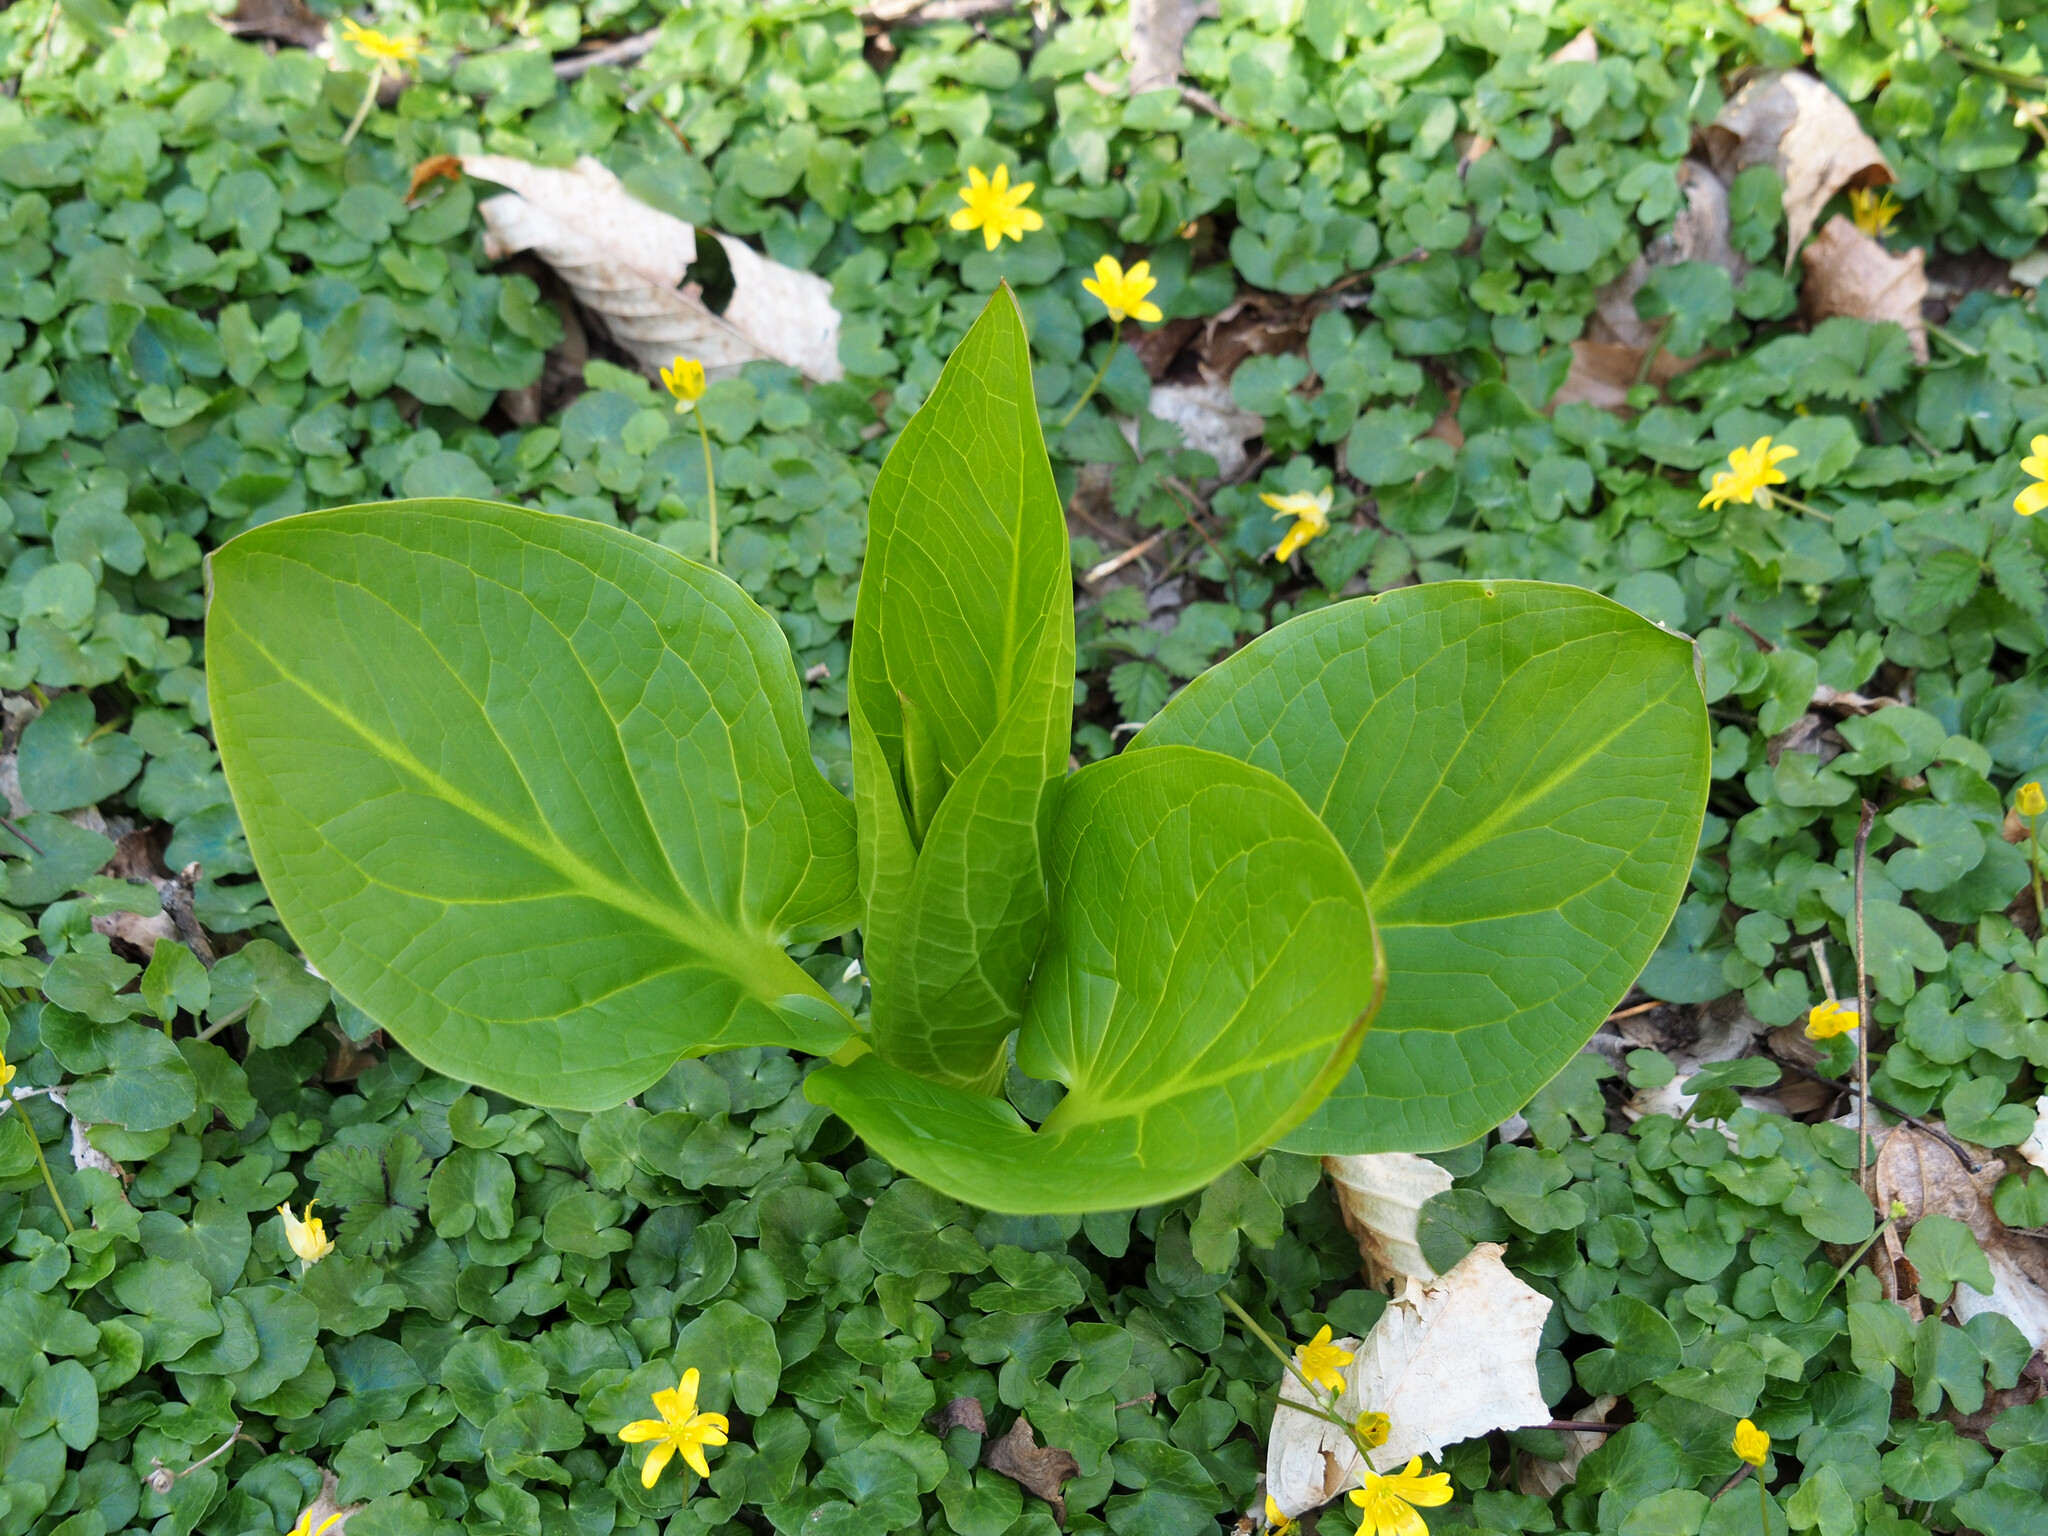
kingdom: Plantae
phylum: Tracheophyta
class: Liliopsida
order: Alismatales
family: Araceae
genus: Symplocarpus
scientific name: Symplocarpus foetidus
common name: Eastern skunk cabbage
